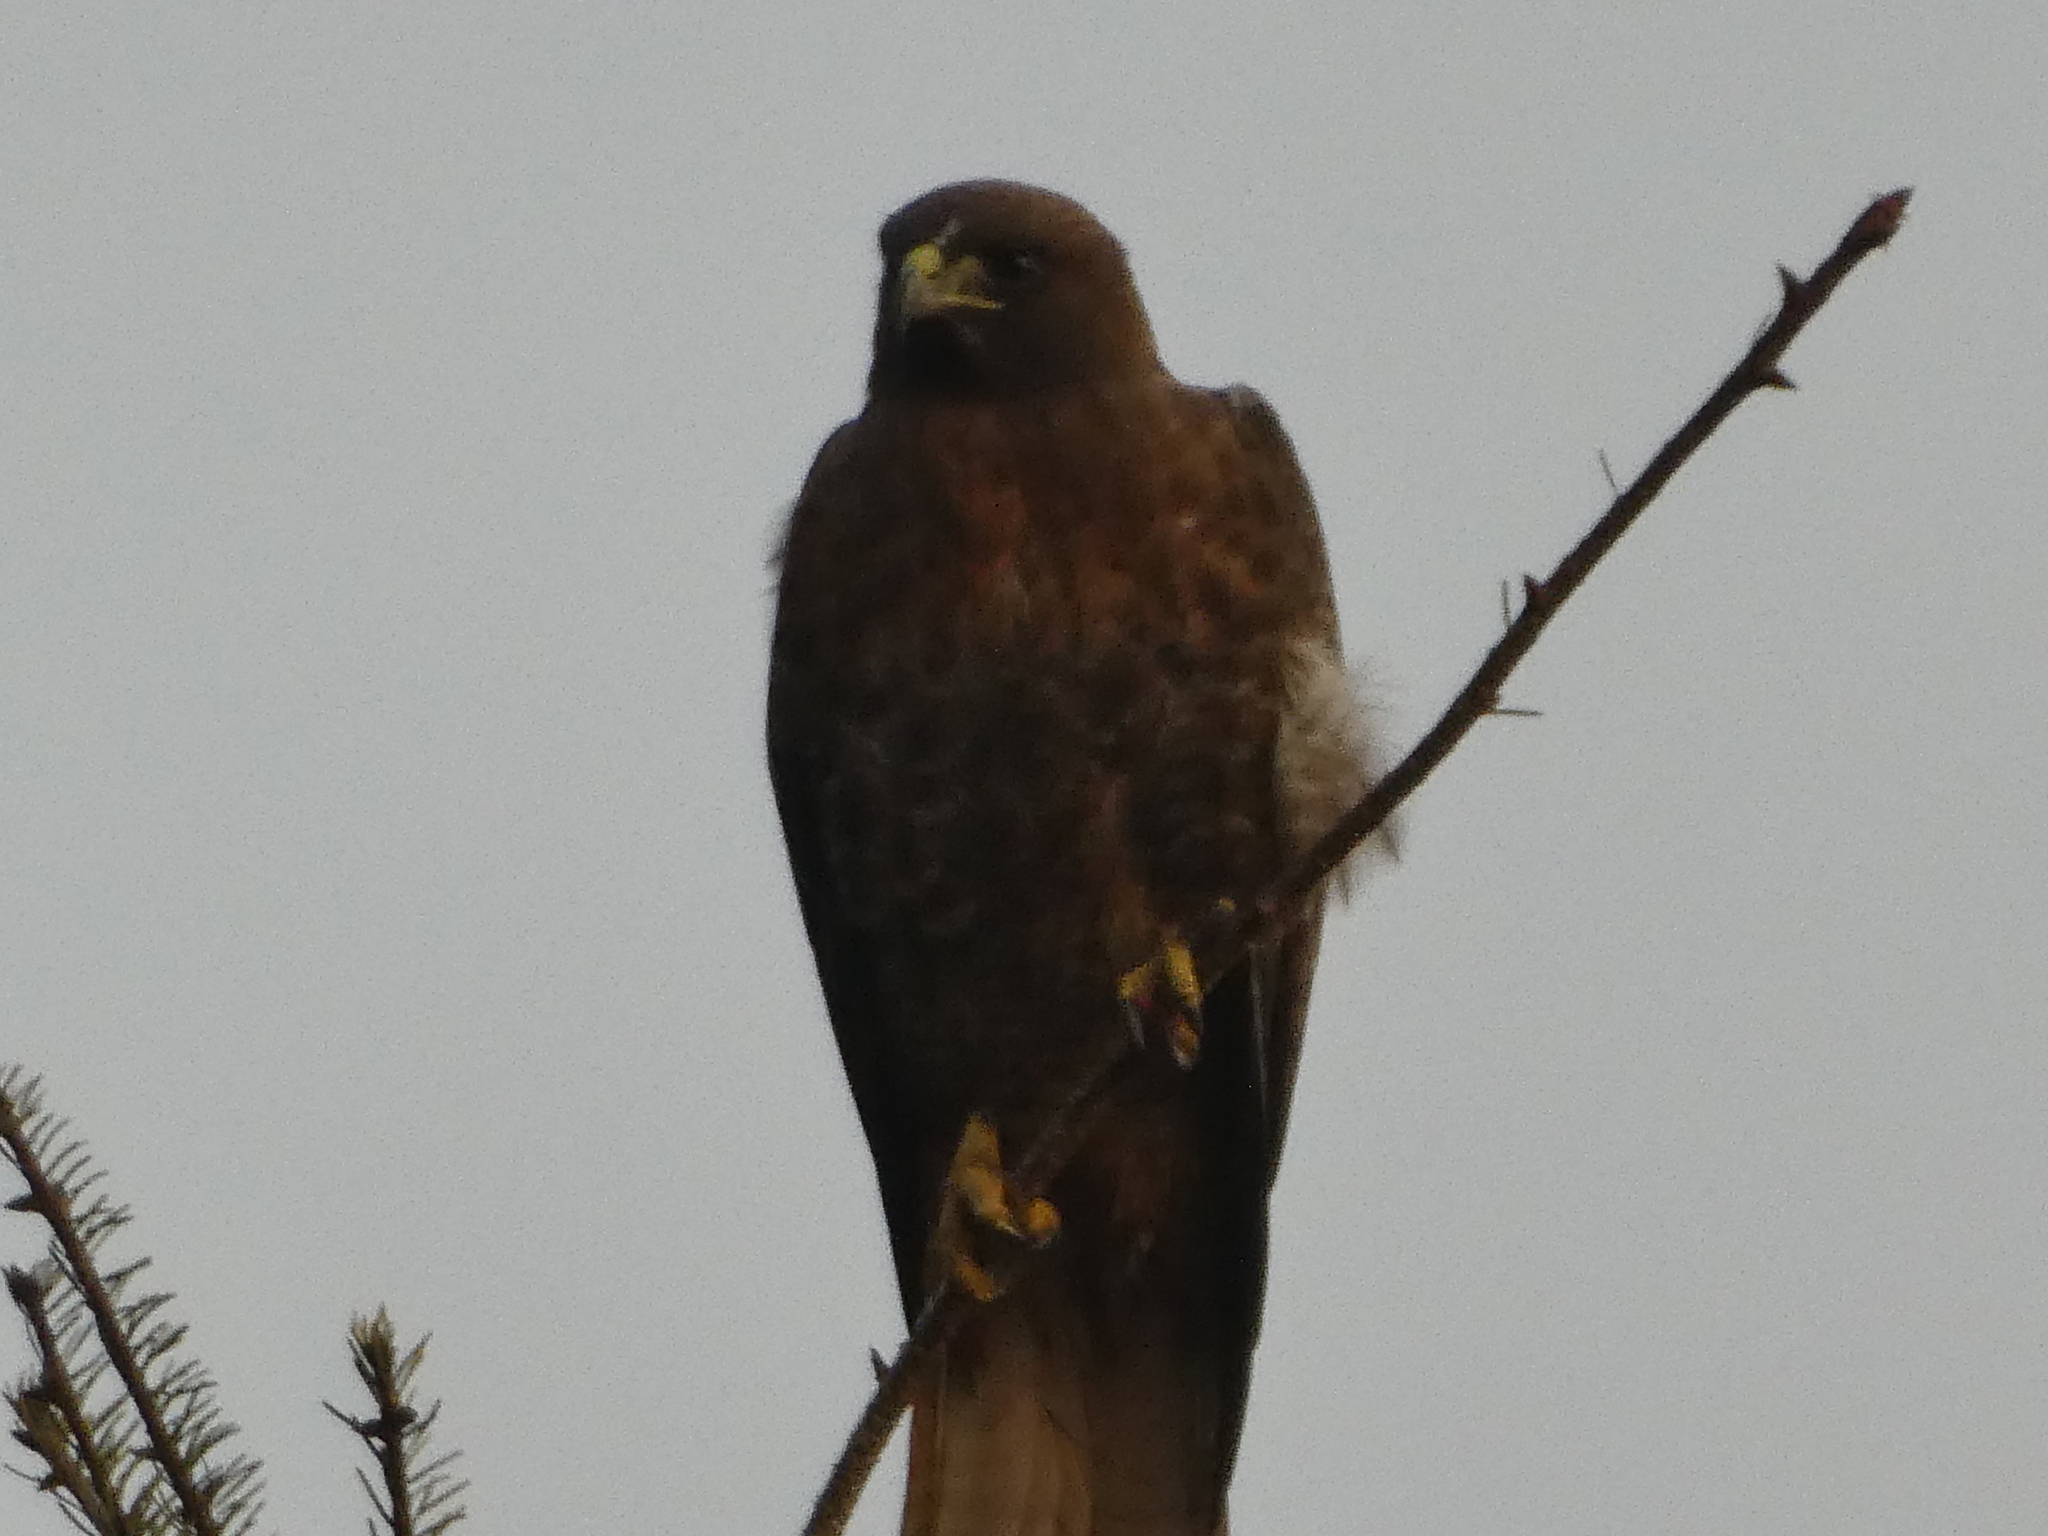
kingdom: Animalia
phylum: Chordata
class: Aves
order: Accipitriformes
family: Accipitridae
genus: Buteo
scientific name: Buteo jamaicensis
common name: Red-tailed hawk
